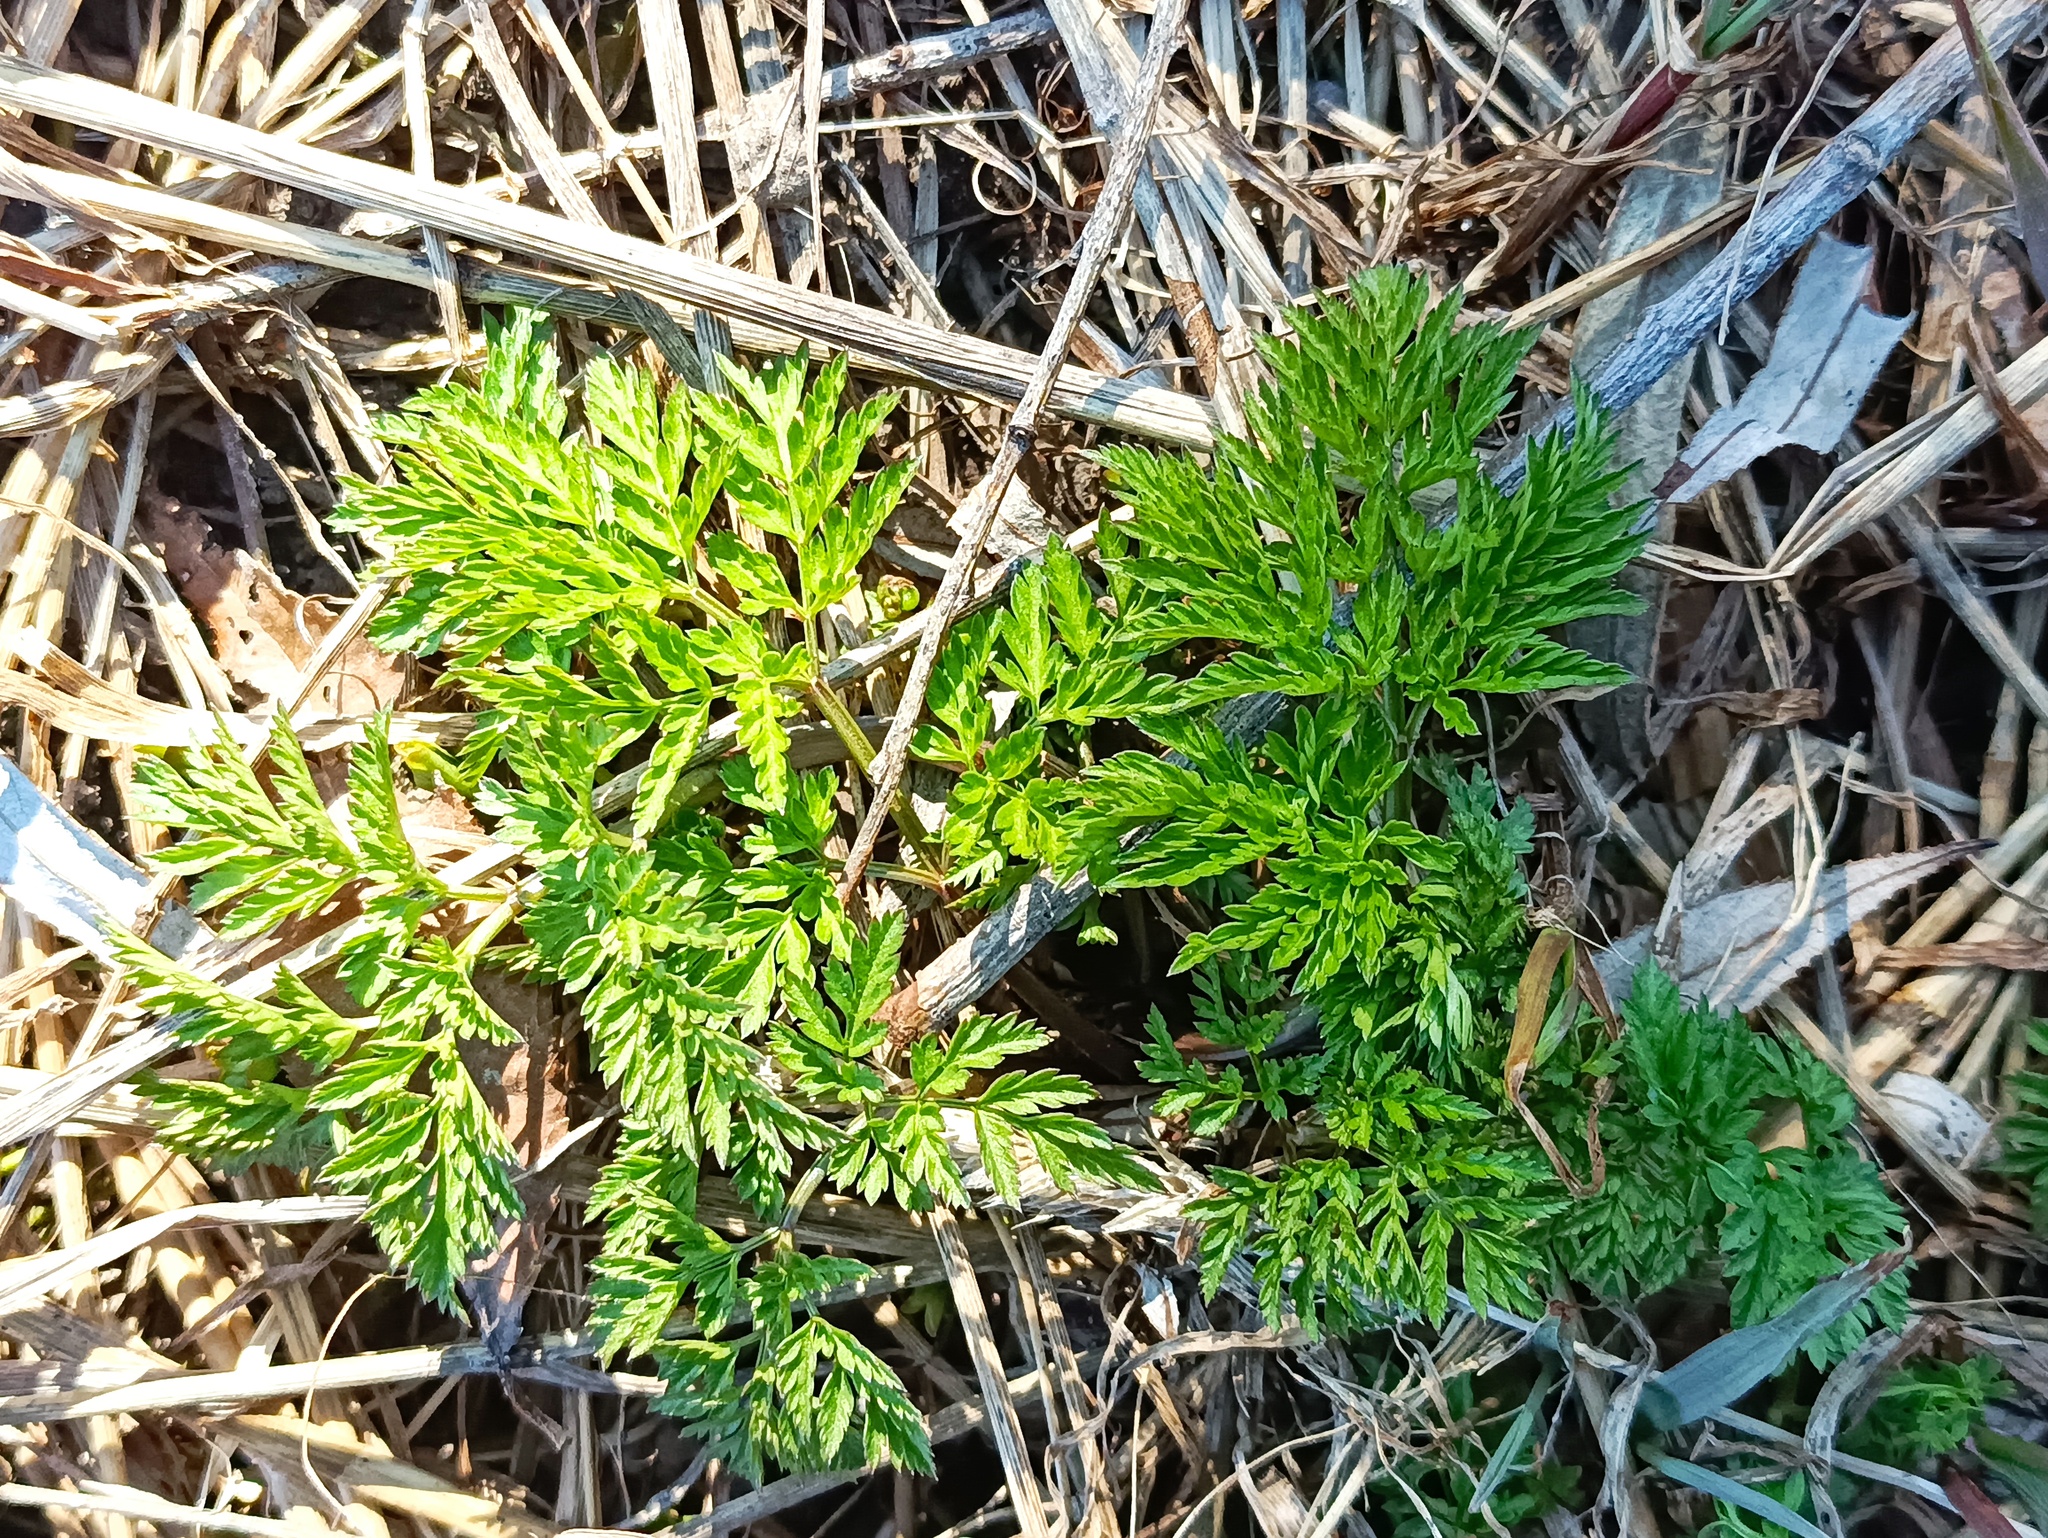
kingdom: Plantae
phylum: Tracheophyta
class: Magnoliopsida
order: Apiales
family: Apiaceae
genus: Anthriscus
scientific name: Anthriscus sylvestris
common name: Cow parsley
